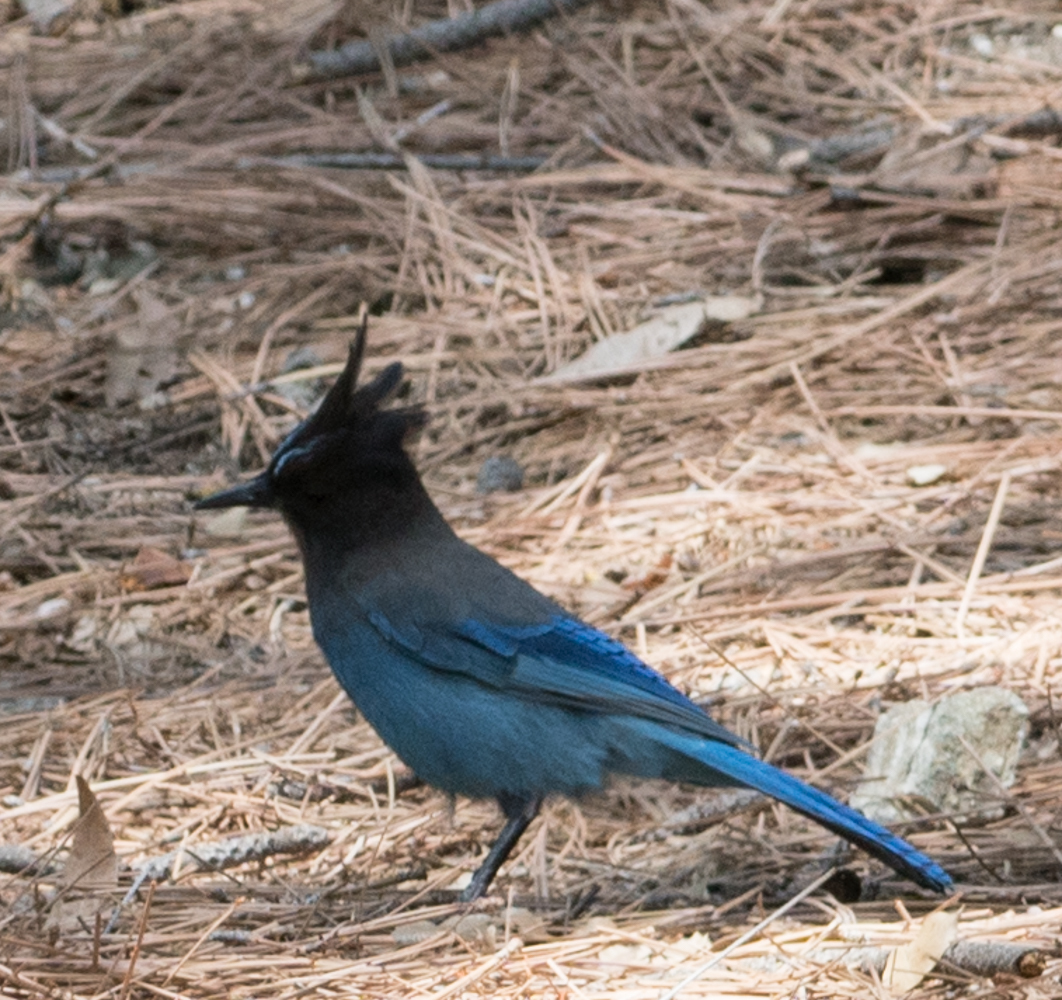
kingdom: Animalia
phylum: Chordata
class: Aves
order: Passeriformes
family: Corvidae
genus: Cyanocitta
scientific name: Cyanocitta stelleri
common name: Steller's jay
